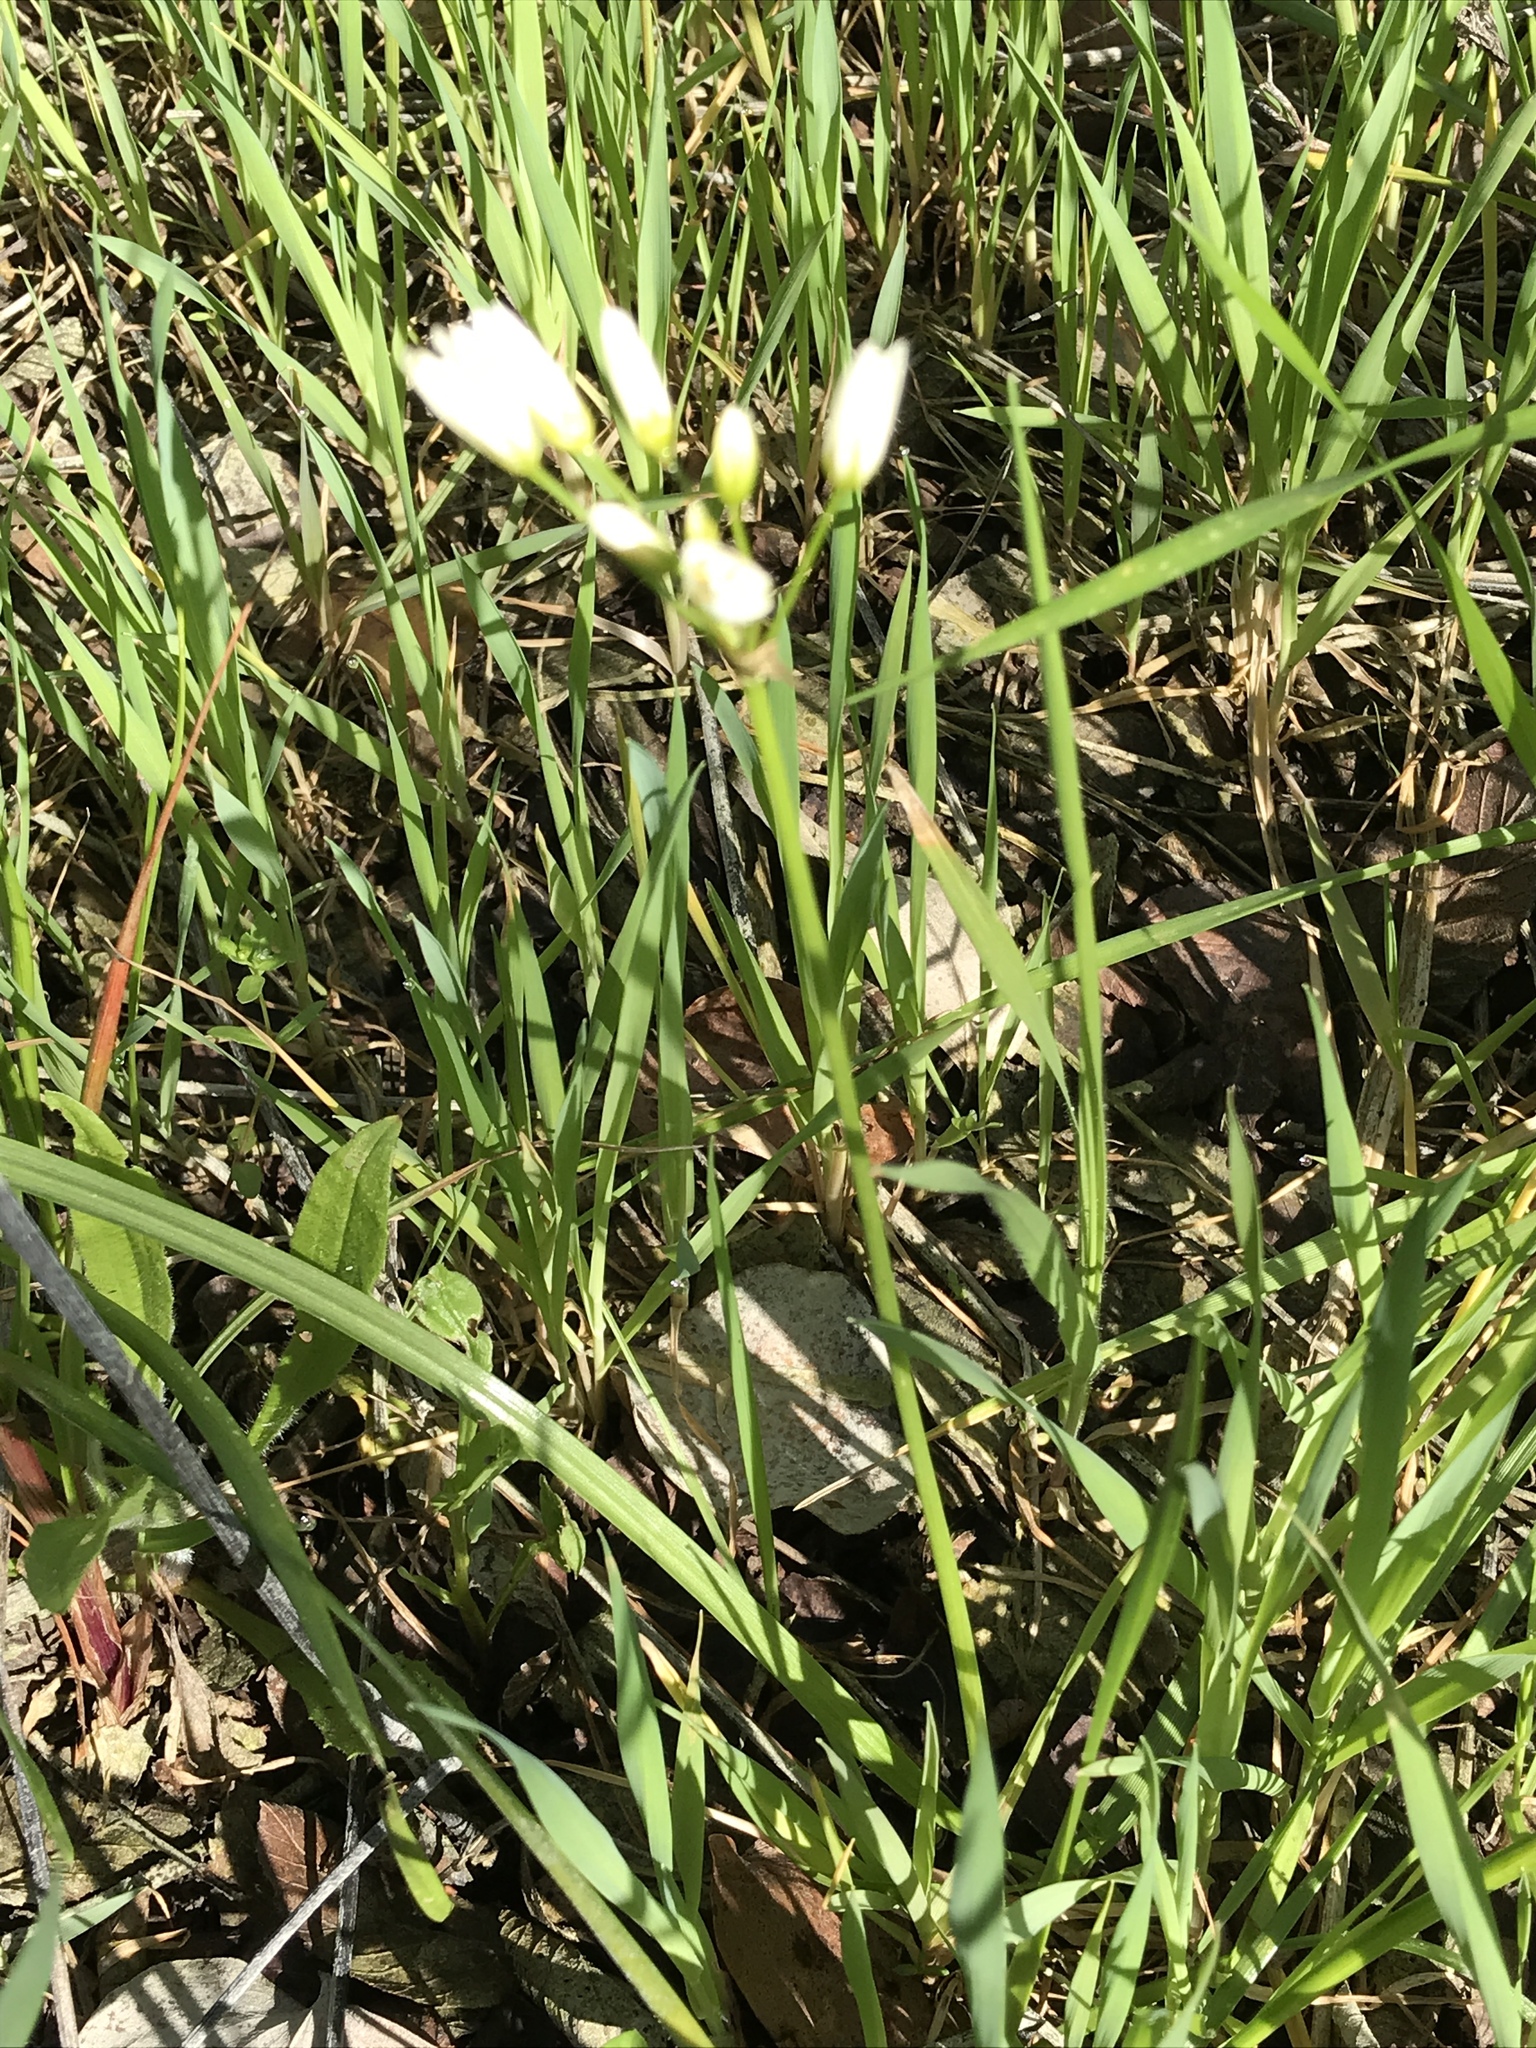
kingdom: Plantae
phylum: Tracheophyta
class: Liliopsida
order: Asparagales
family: Amaryllidaceae
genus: Nothoscordum
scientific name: Nothoscordum bivalve
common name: Crow-poison
